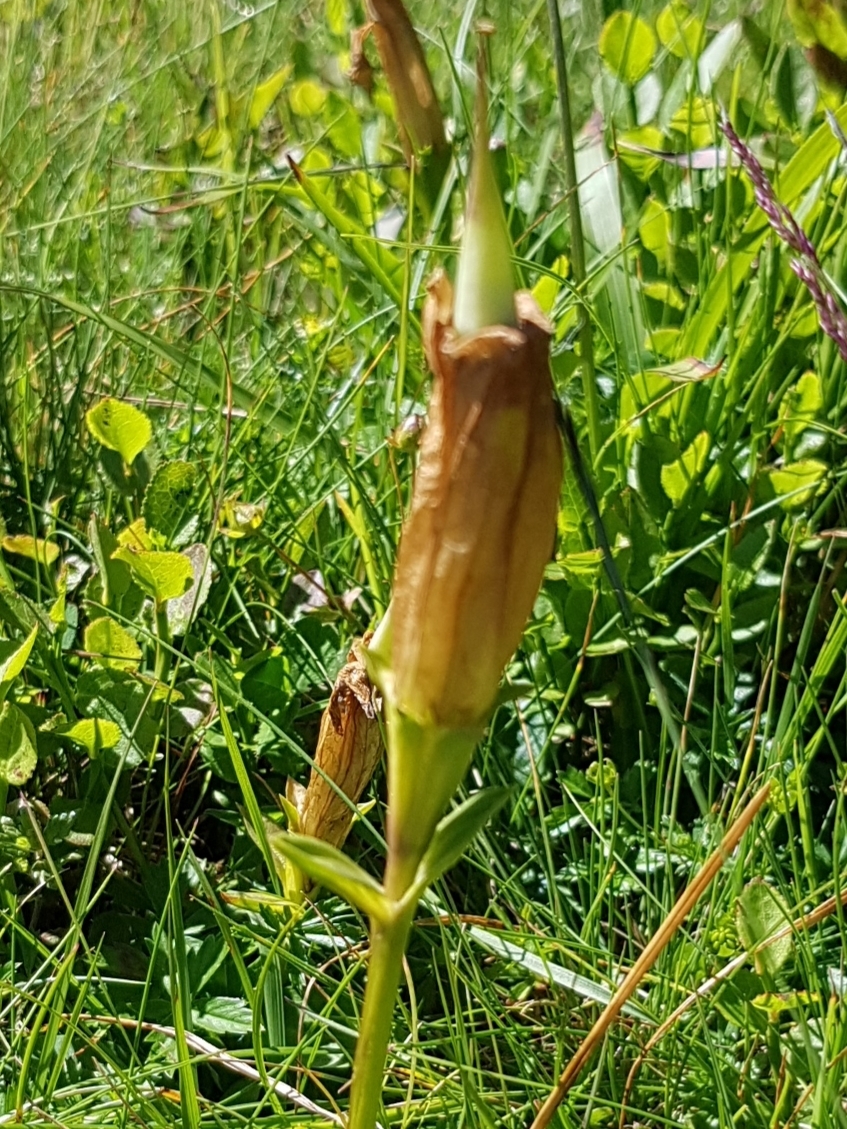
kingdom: Plantae
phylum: Tracheophyta
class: Magnoliopsida
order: Gentianales
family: Gentianaceae
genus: Gentiana
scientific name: Gentiana acaulis
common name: Trumpet gentian
